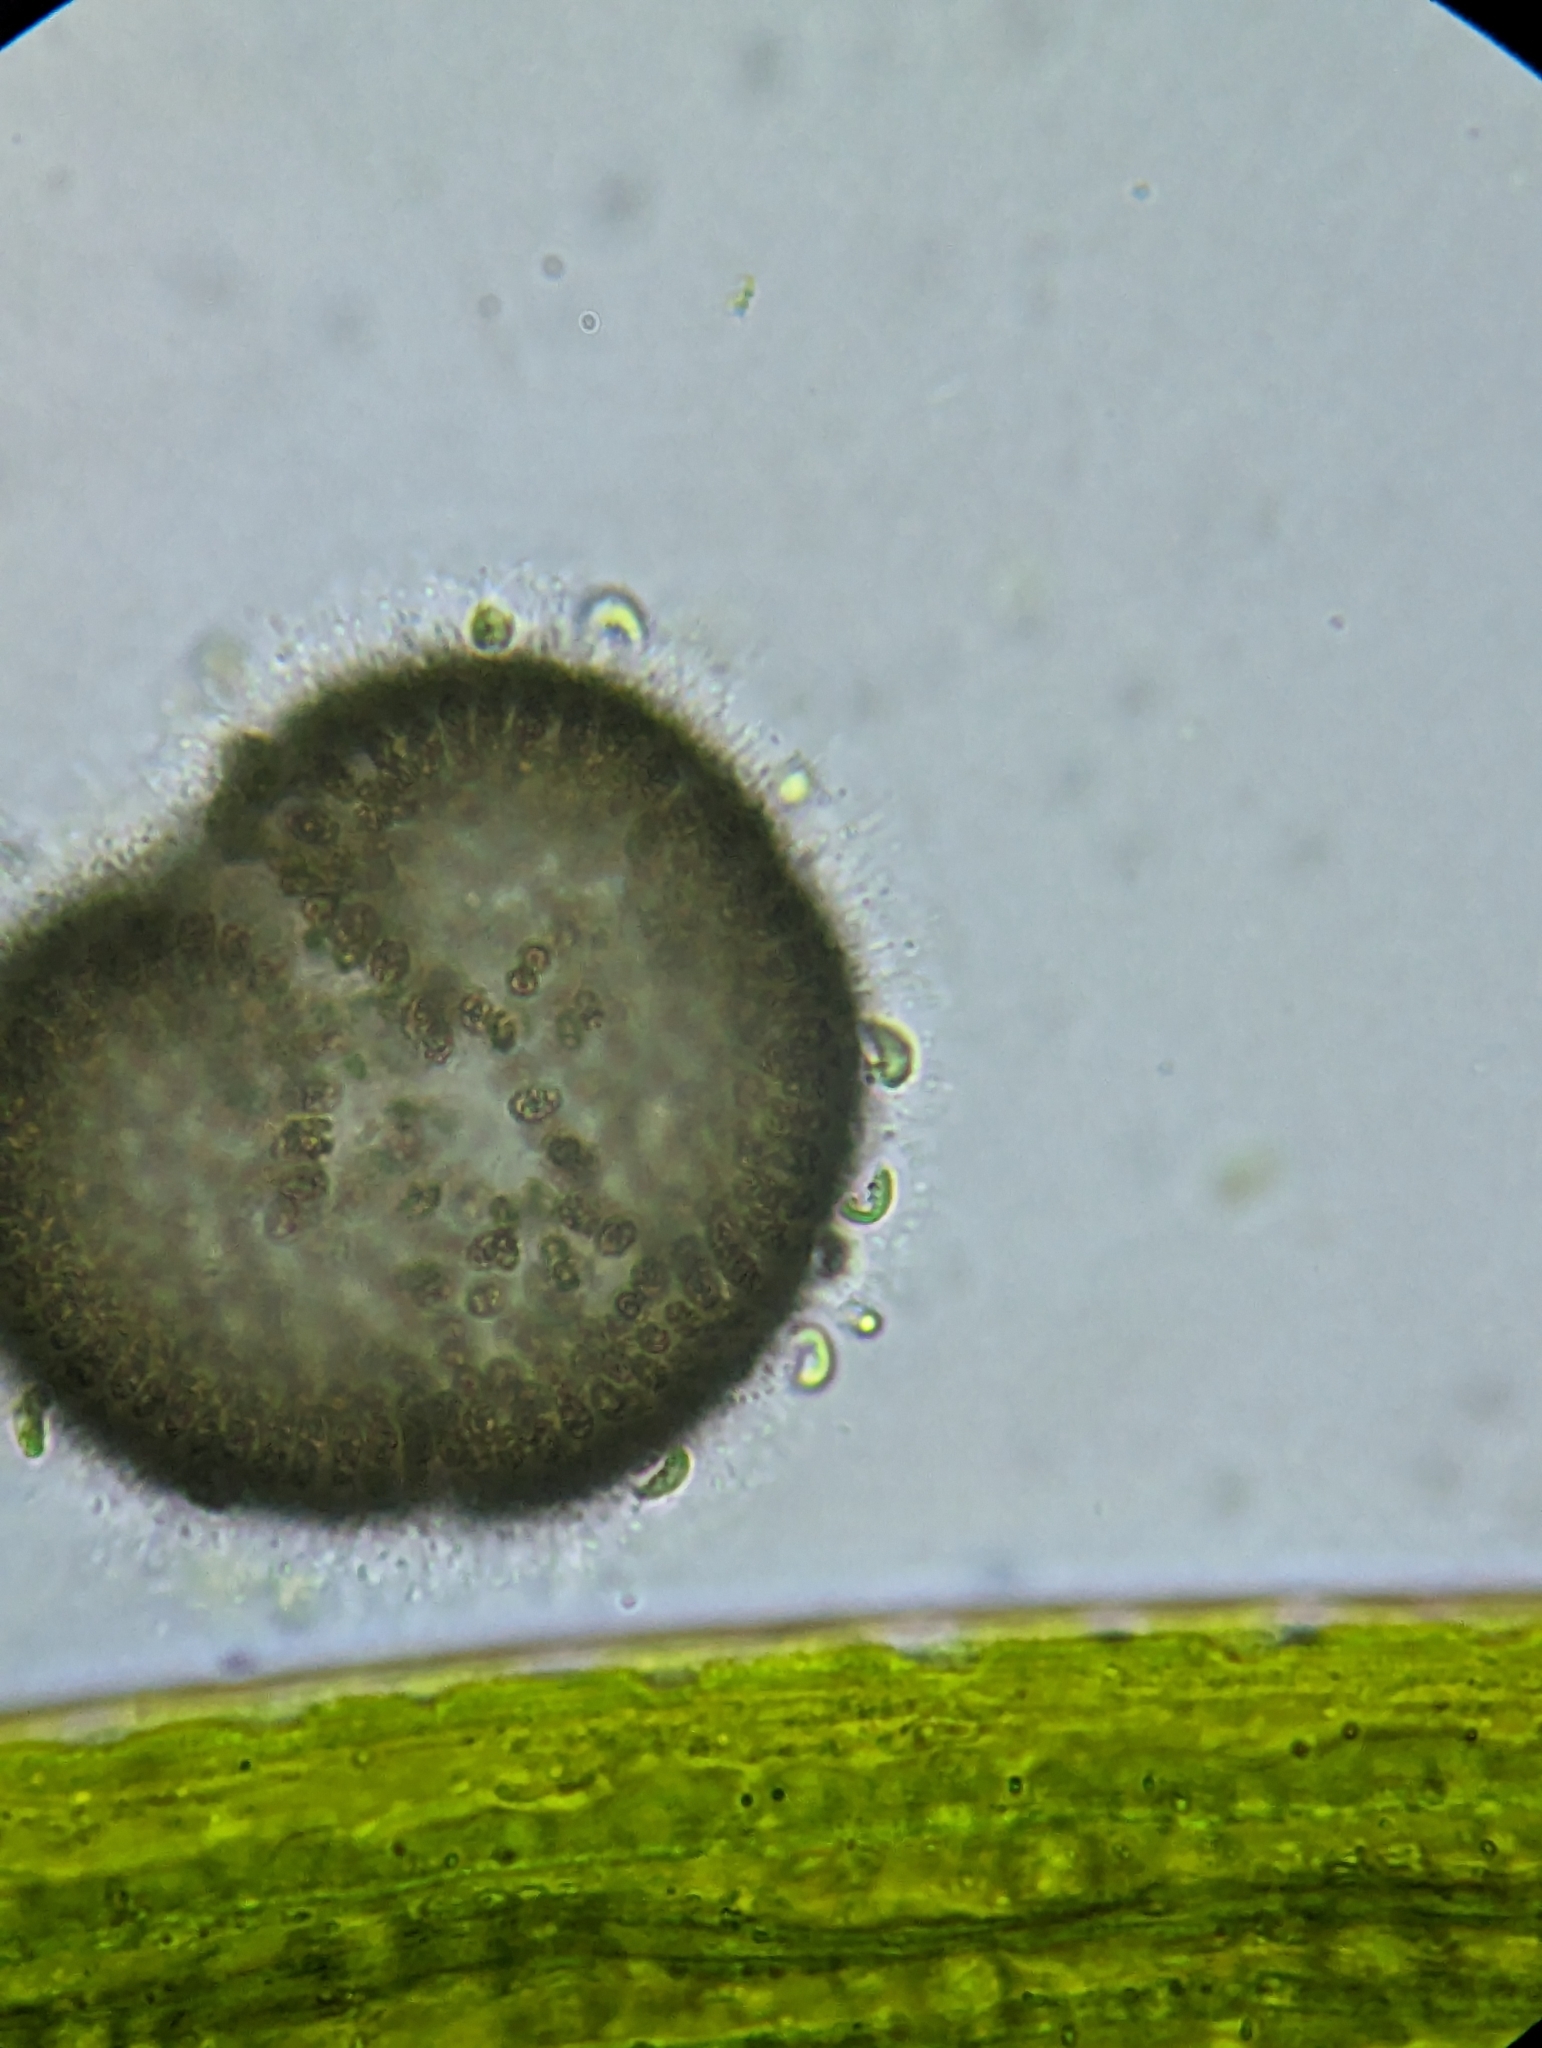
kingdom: Chromista
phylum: Ochrophyta
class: Xanthophyceae
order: Mischococcales
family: Characiopsidaceae
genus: Characiopsis
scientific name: Characiopsis curvata
